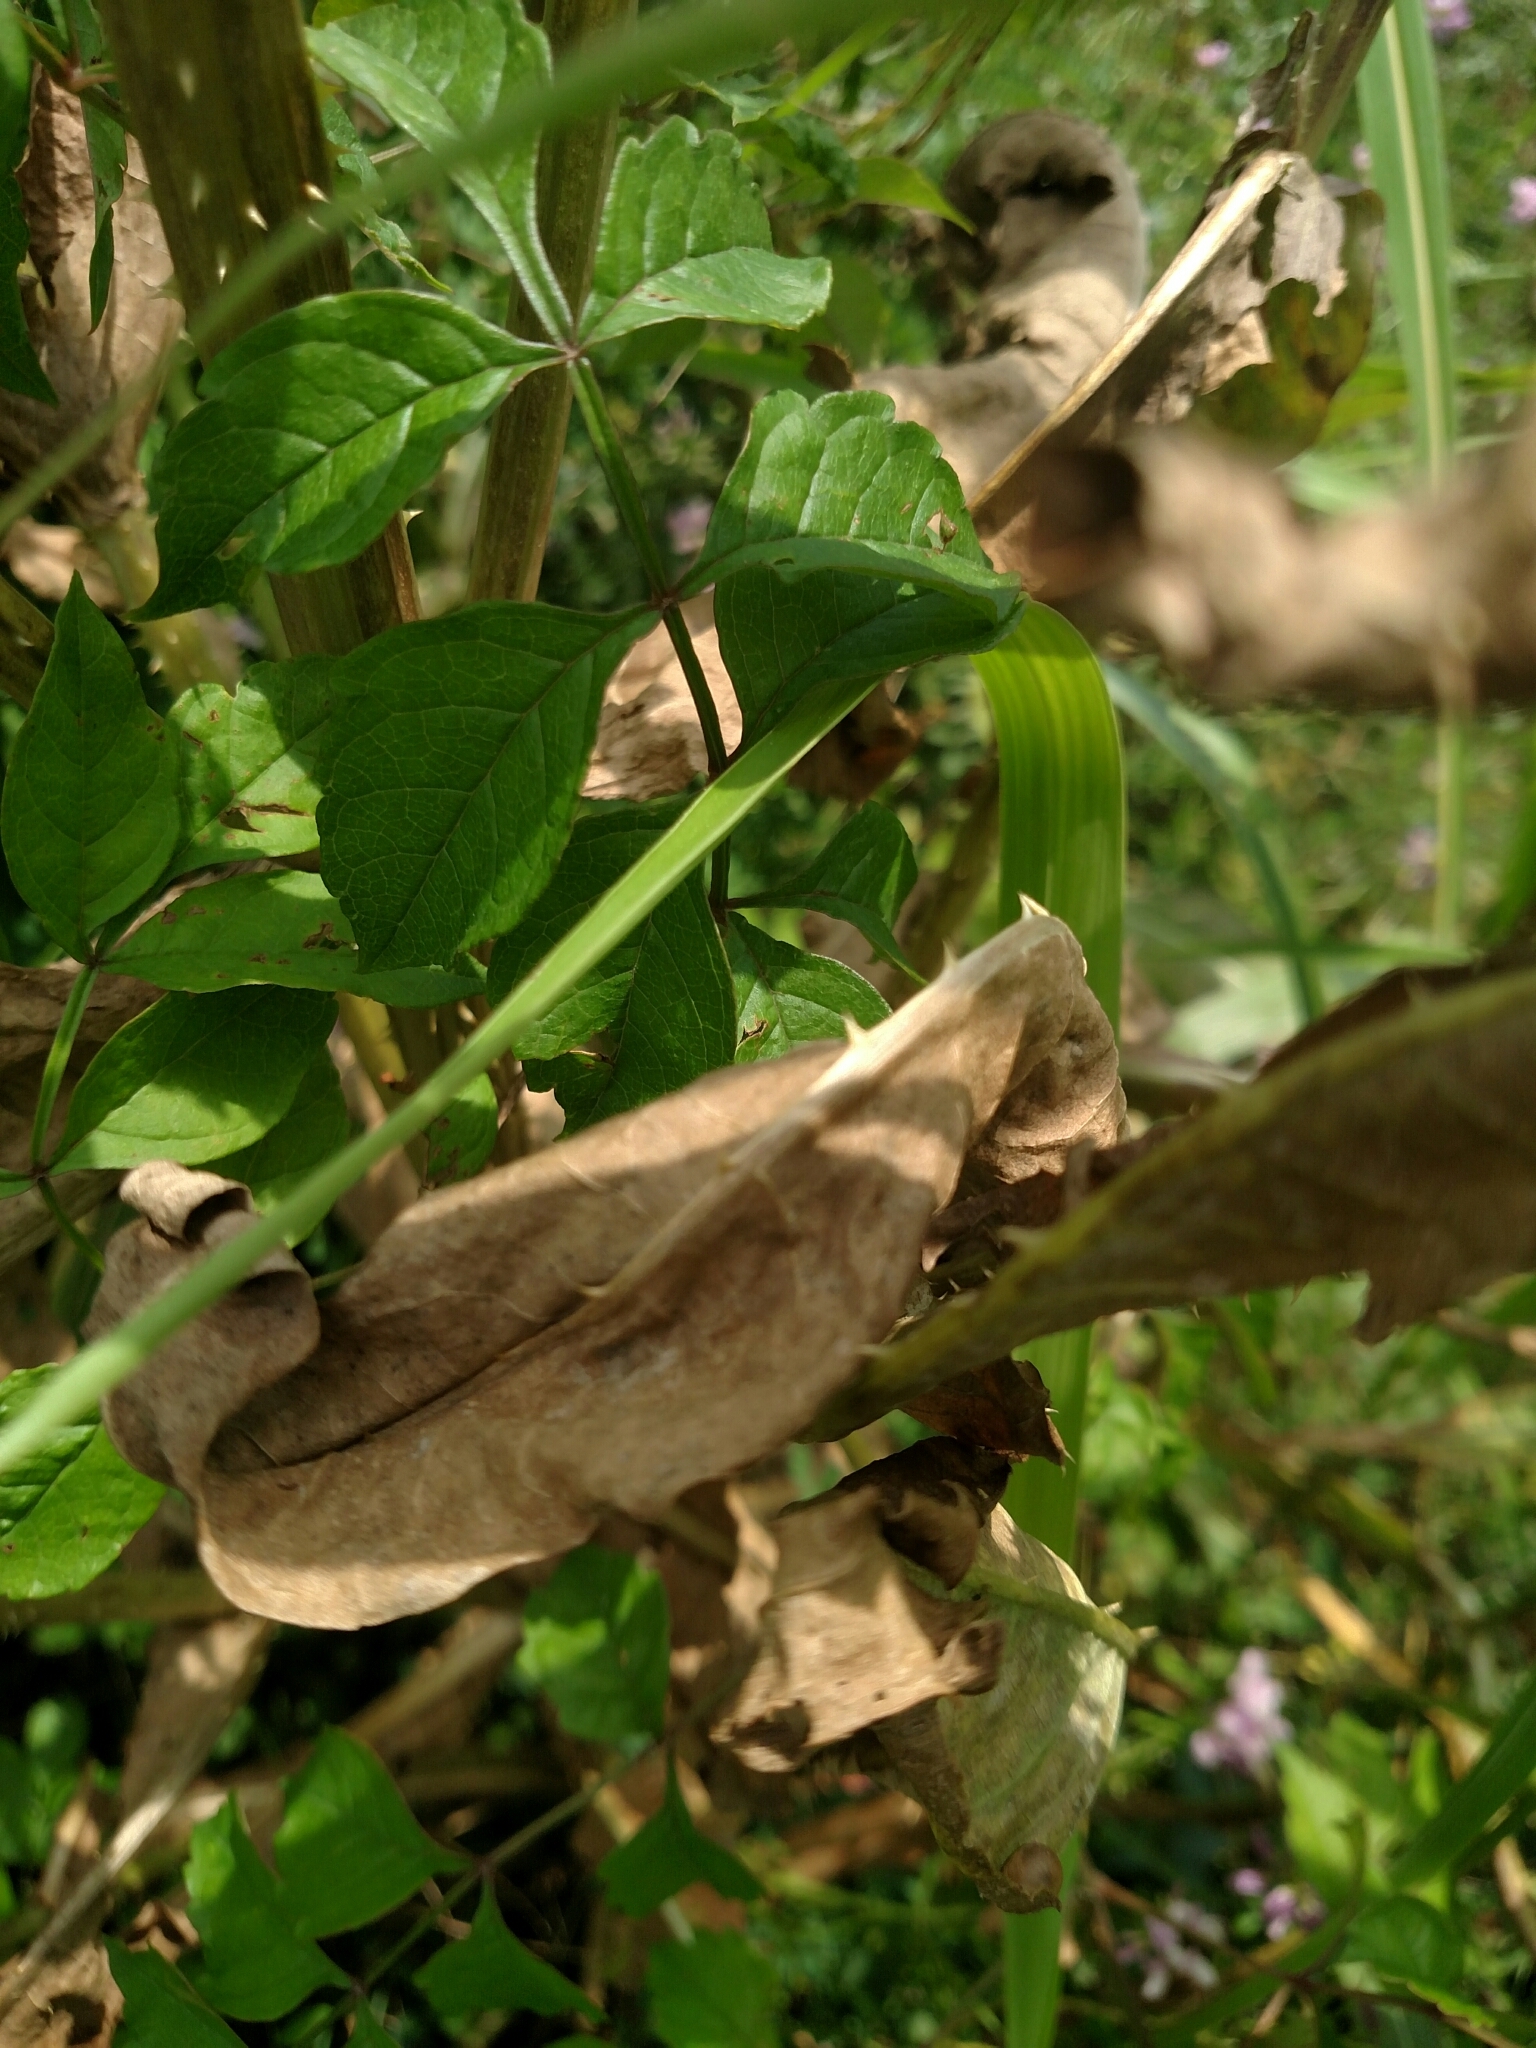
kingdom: Plantae
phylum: Tracheophyta
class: Magnoliopsida
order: Dipsacales
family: Caprifoliaceae
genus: Dipsacus
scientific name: Dipsacus fullonum
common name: Teasel
